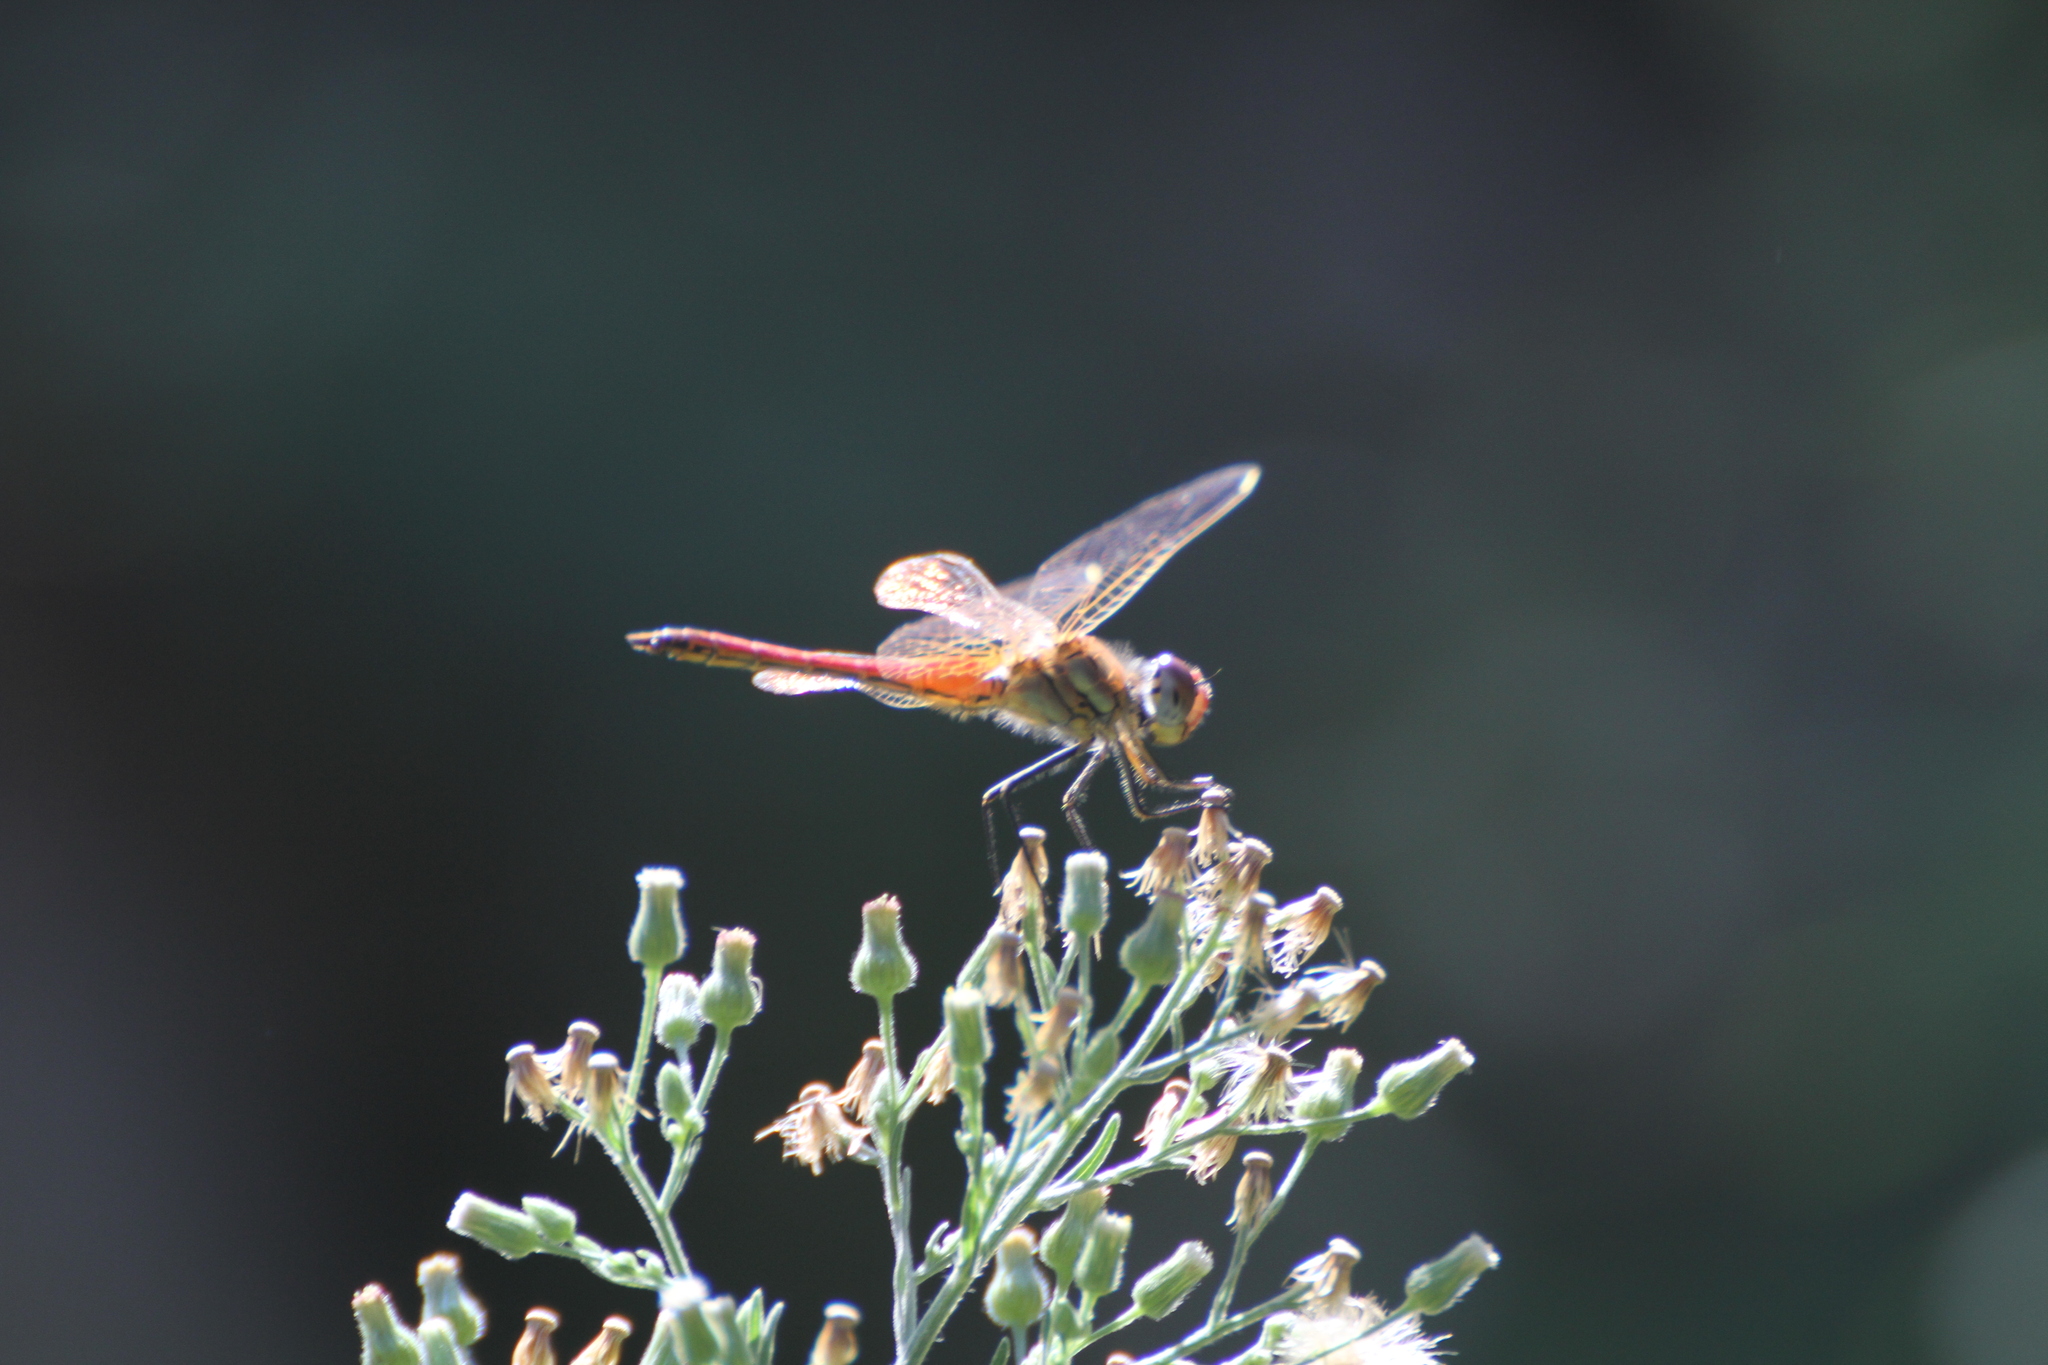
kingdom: Animalia
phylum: Arthropoda
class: Insecta
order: Odonata
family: Libellulidae
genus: Sympetrum
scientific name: Sympetrum fonscolombii
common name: Red-veined darter
